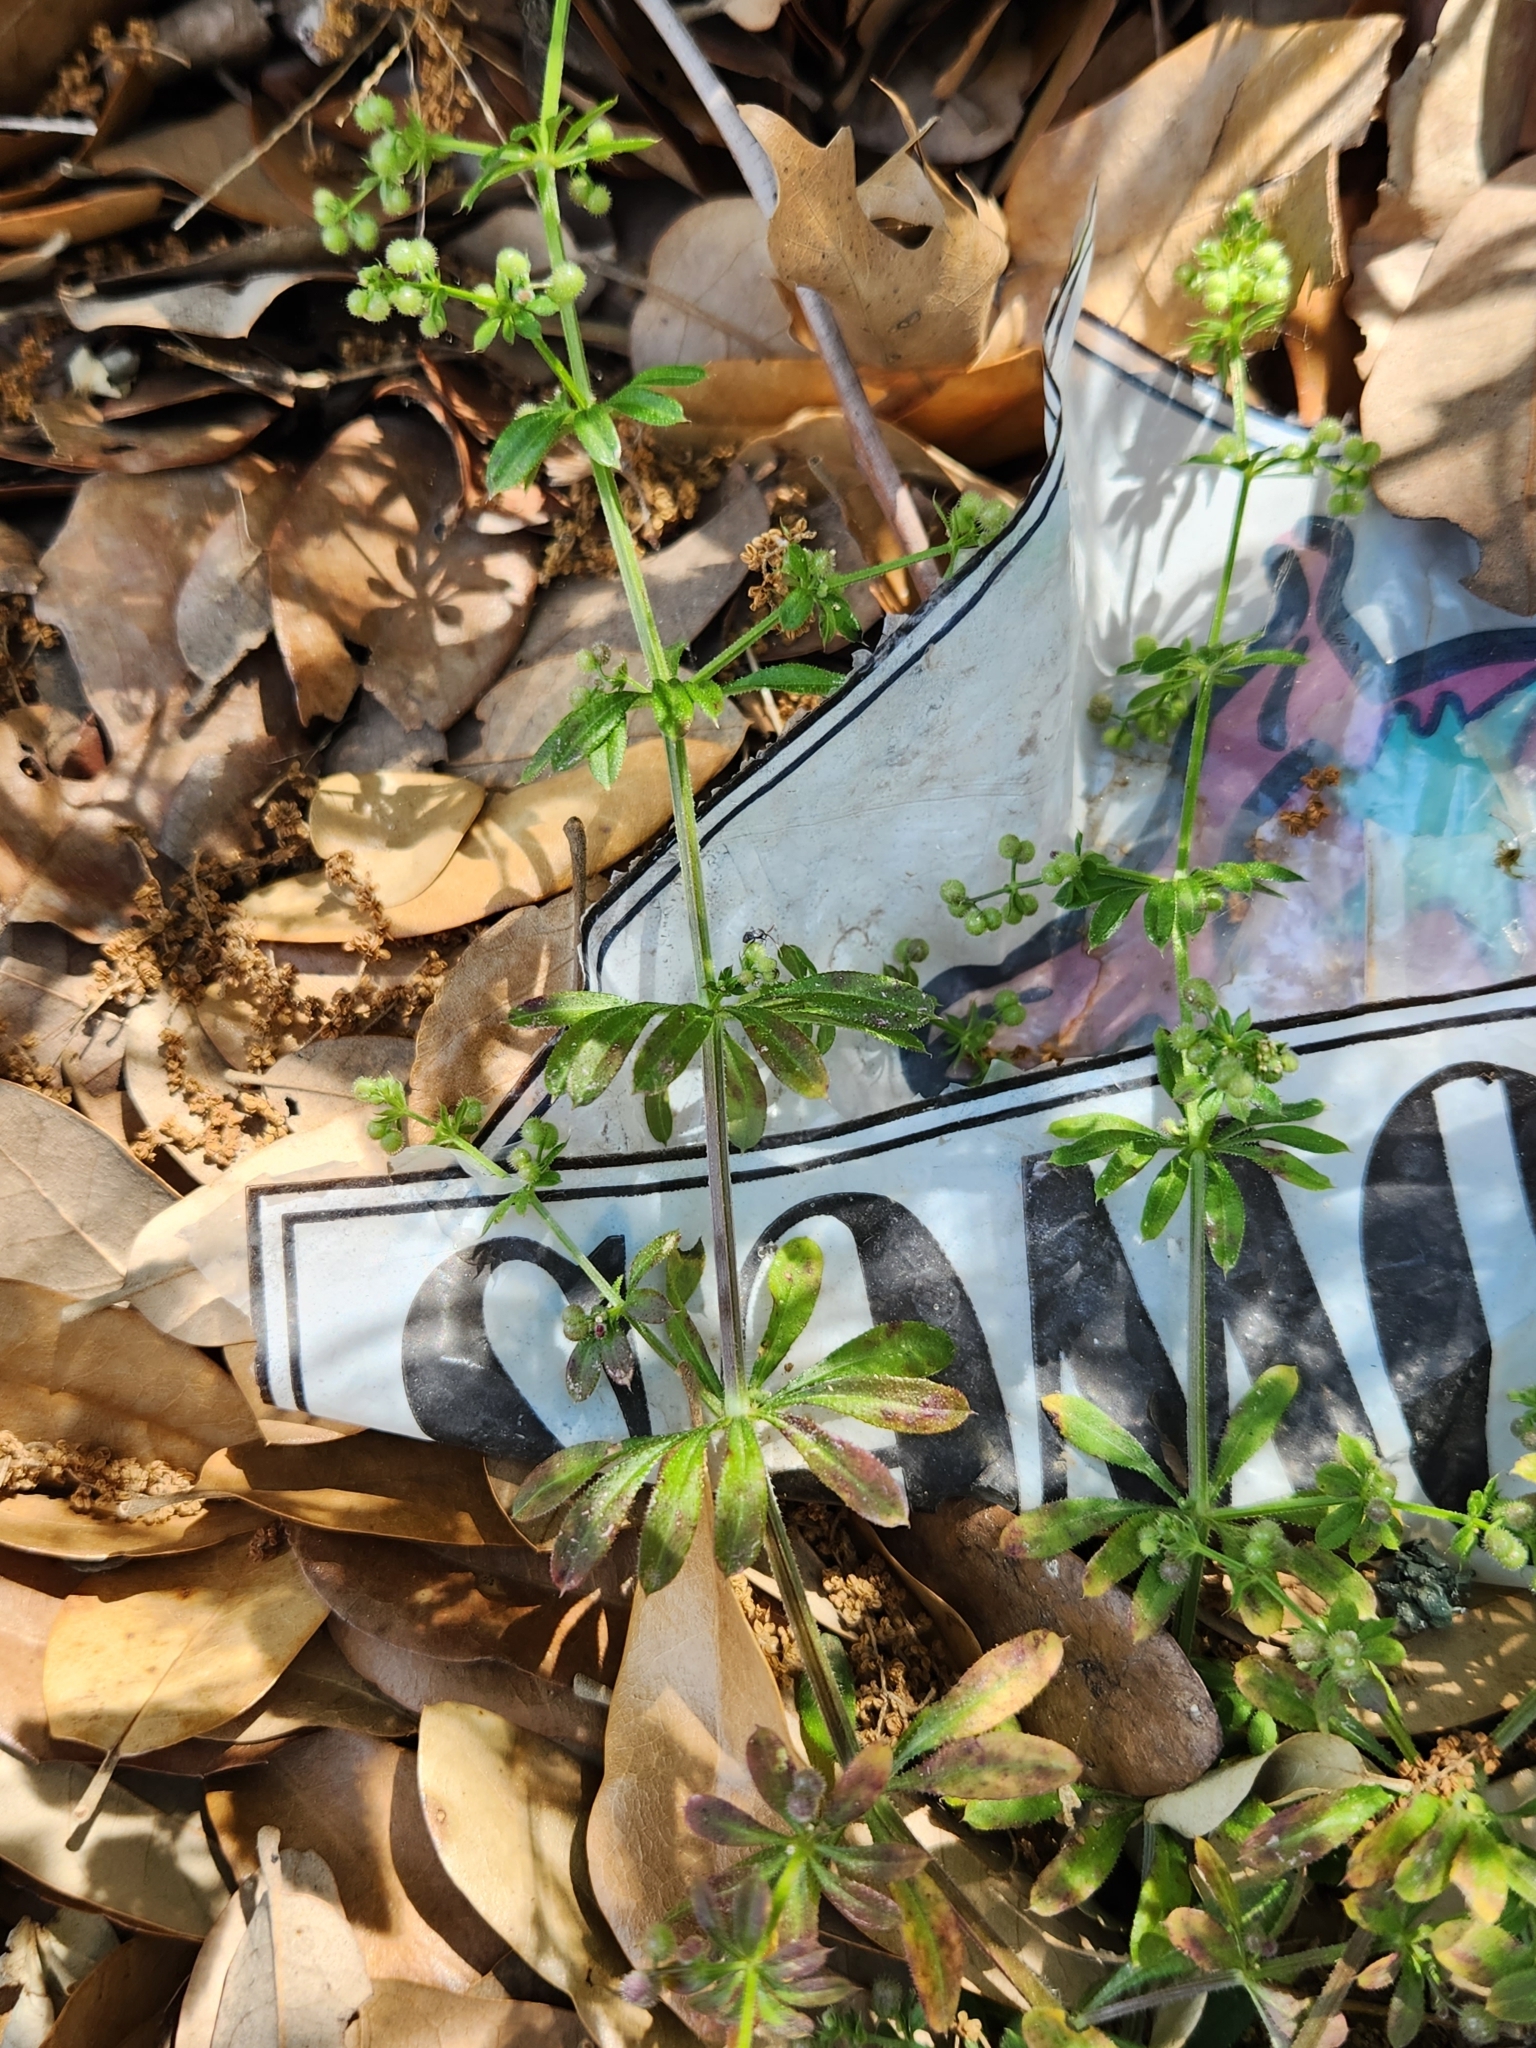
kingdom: Plantae
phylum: Tracheophyta
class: Magnoliopsida
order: Gentianales
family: Rubiaceae
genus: Galium
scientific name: Galium aparine
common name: Cleavers
